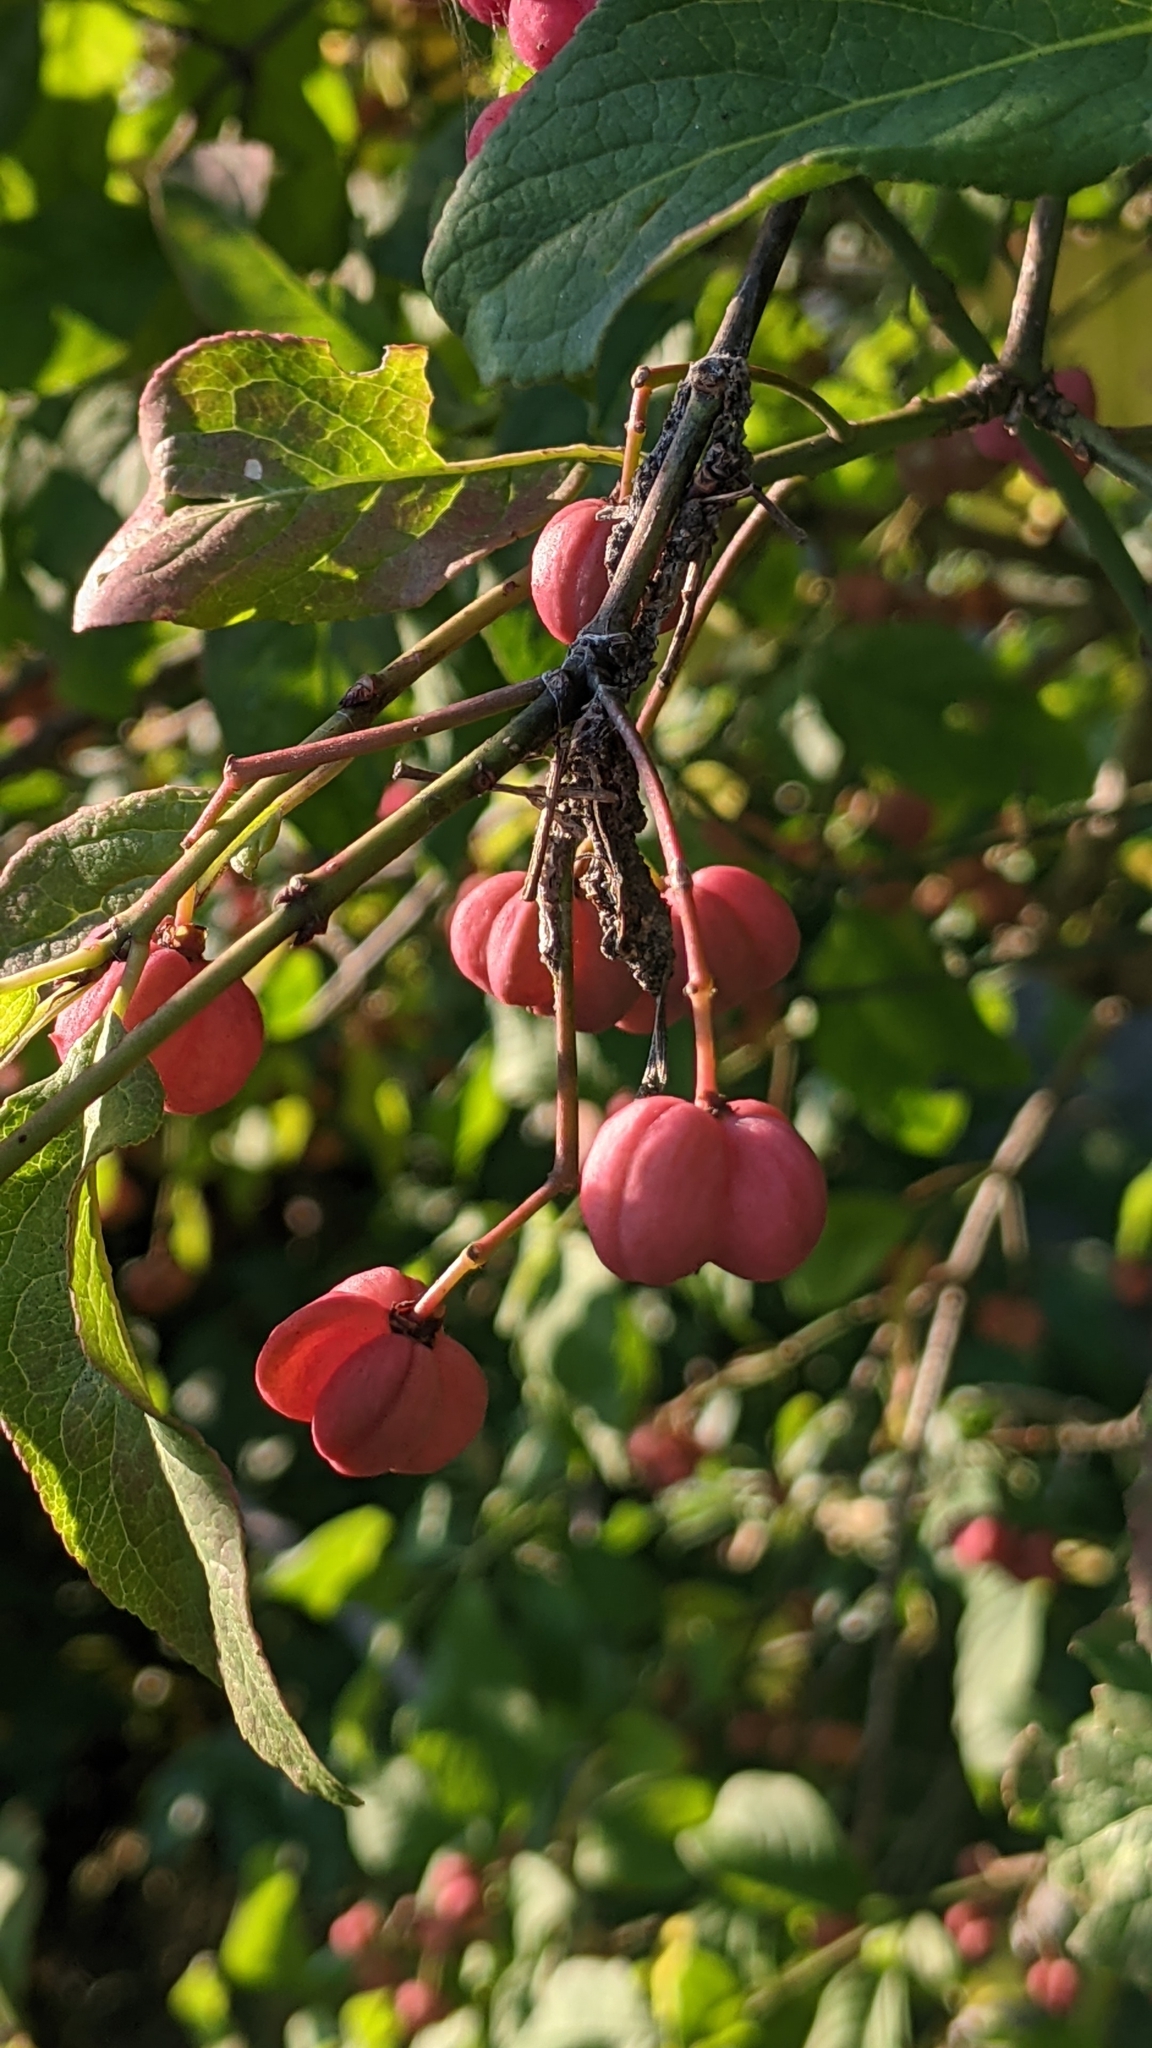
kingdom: Plantae
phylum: Tracheophyta
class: Magnoliopsida
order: Celastrales
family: Celastraceae
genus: Euonymus
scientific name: Euonymus europaeus
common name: Spindle
